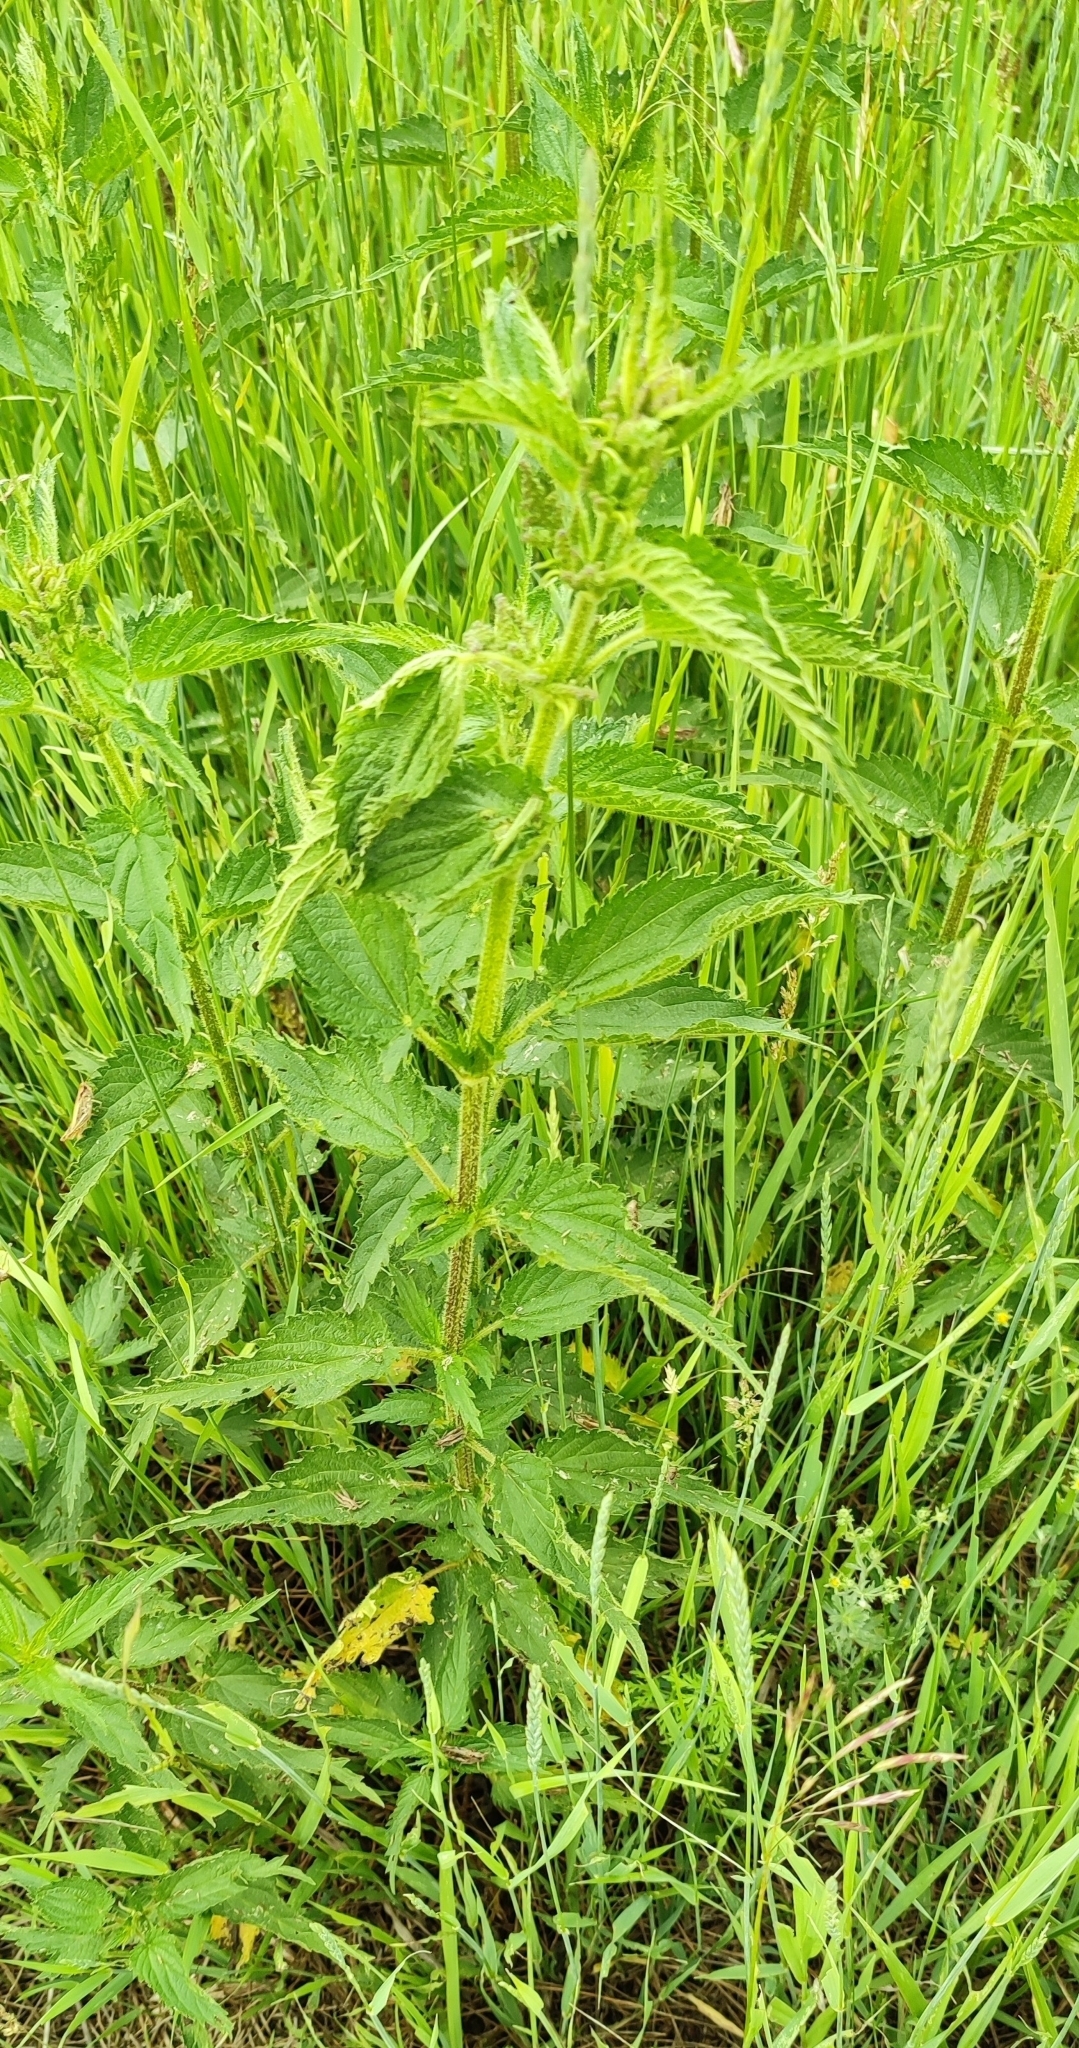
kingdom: Plantae
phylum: Tracheophyta
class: Magnoliopsida
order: Rosales
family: Urticaceae
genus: Urtica
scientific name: Urtica dioica
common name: Common nettle
